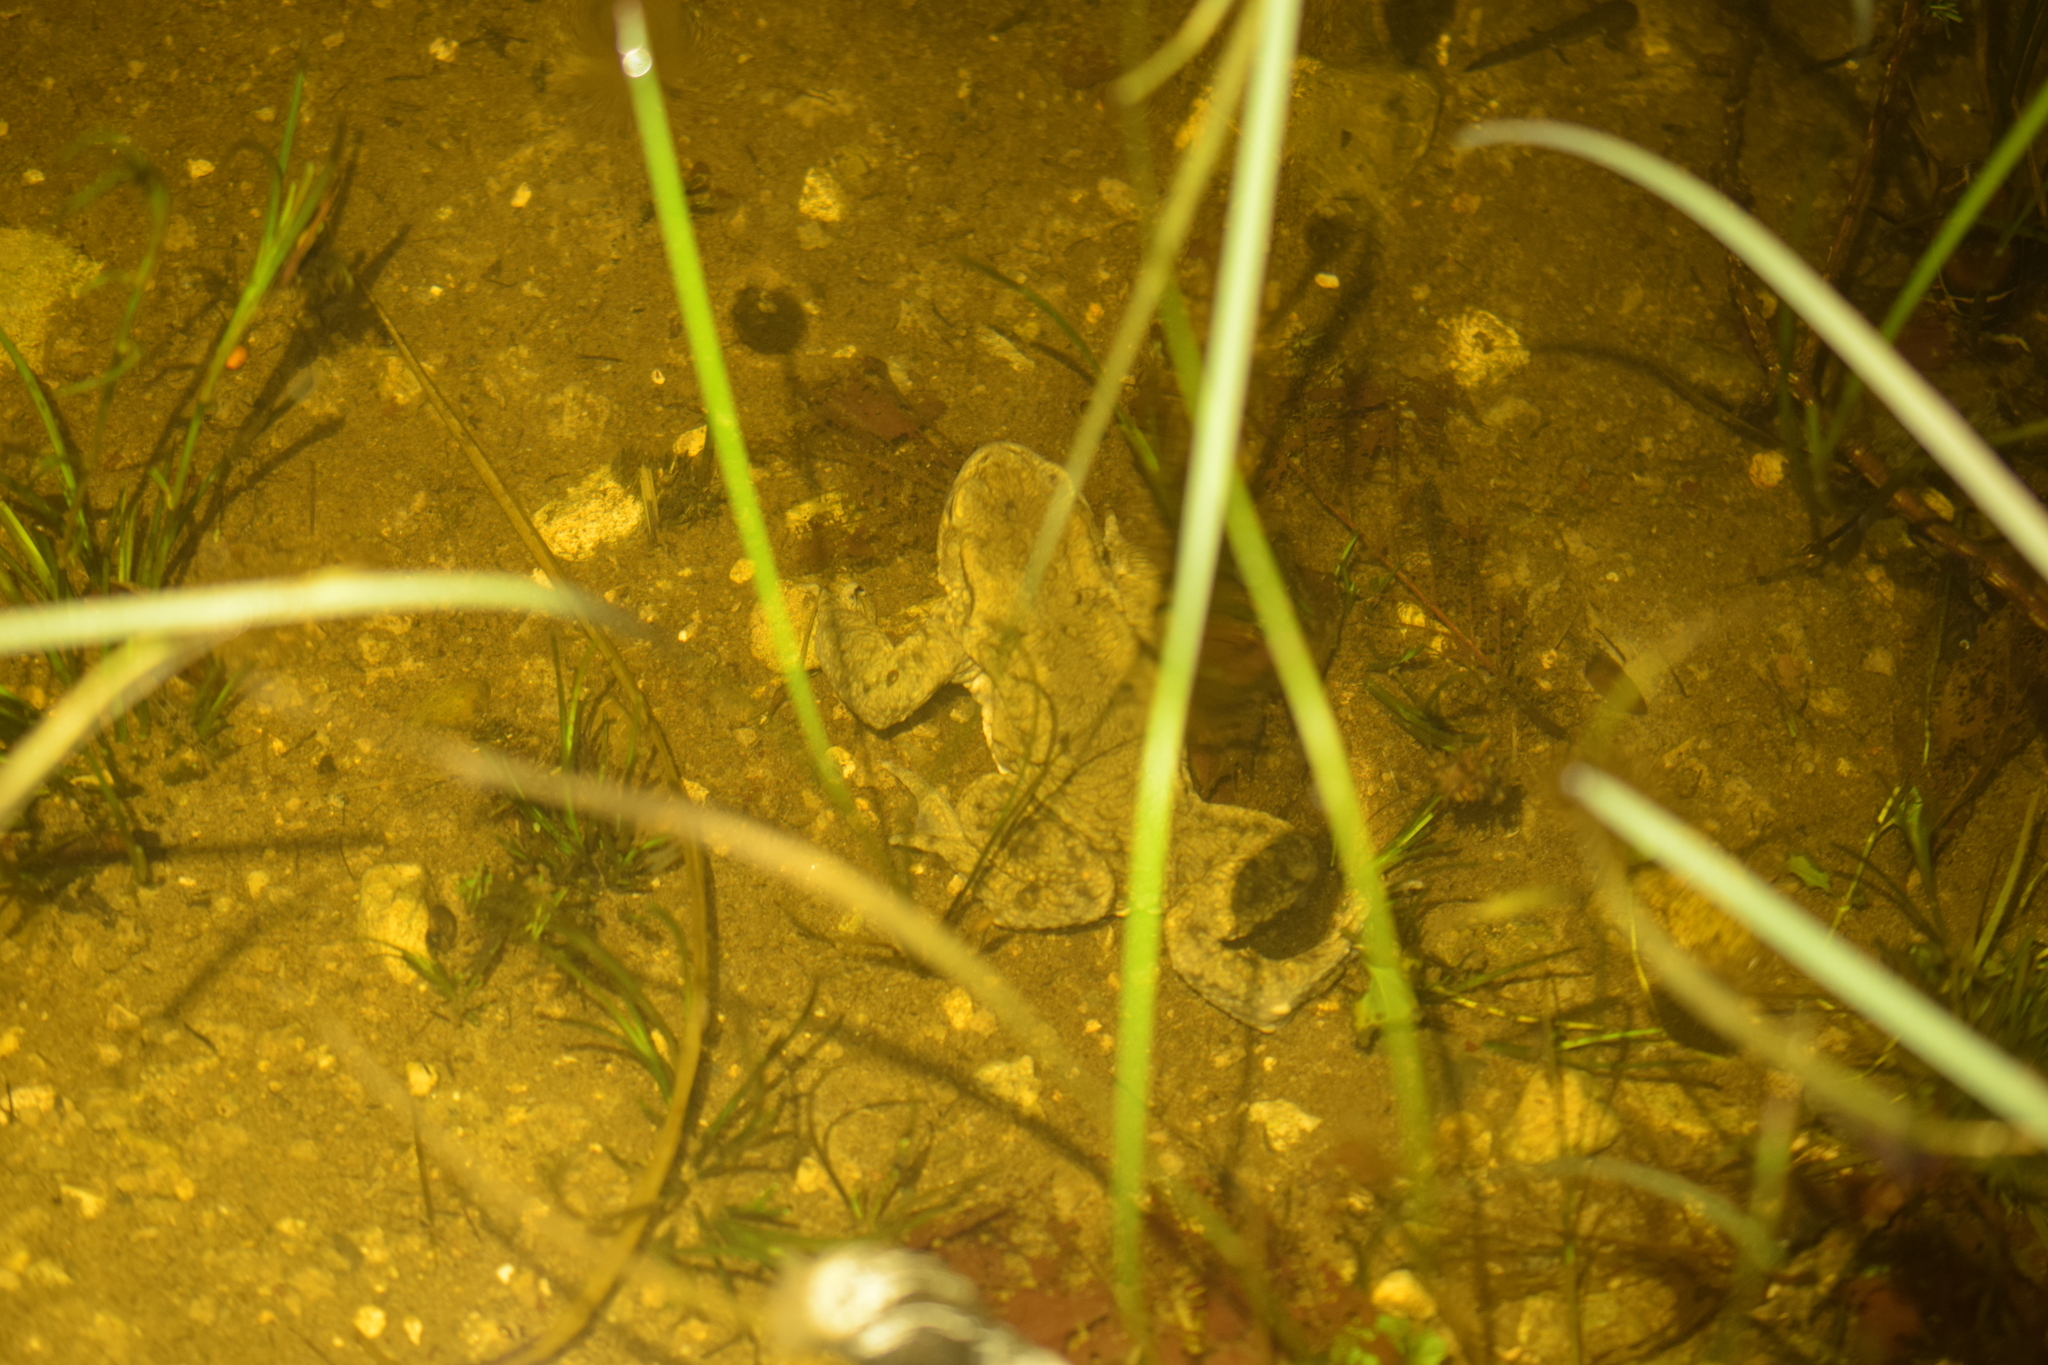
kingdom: Animalia
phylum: Chordata
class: Amphibia
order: Anura
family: Bufonidae
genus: Bufo
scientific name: Bufo bufo
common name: Common toad
